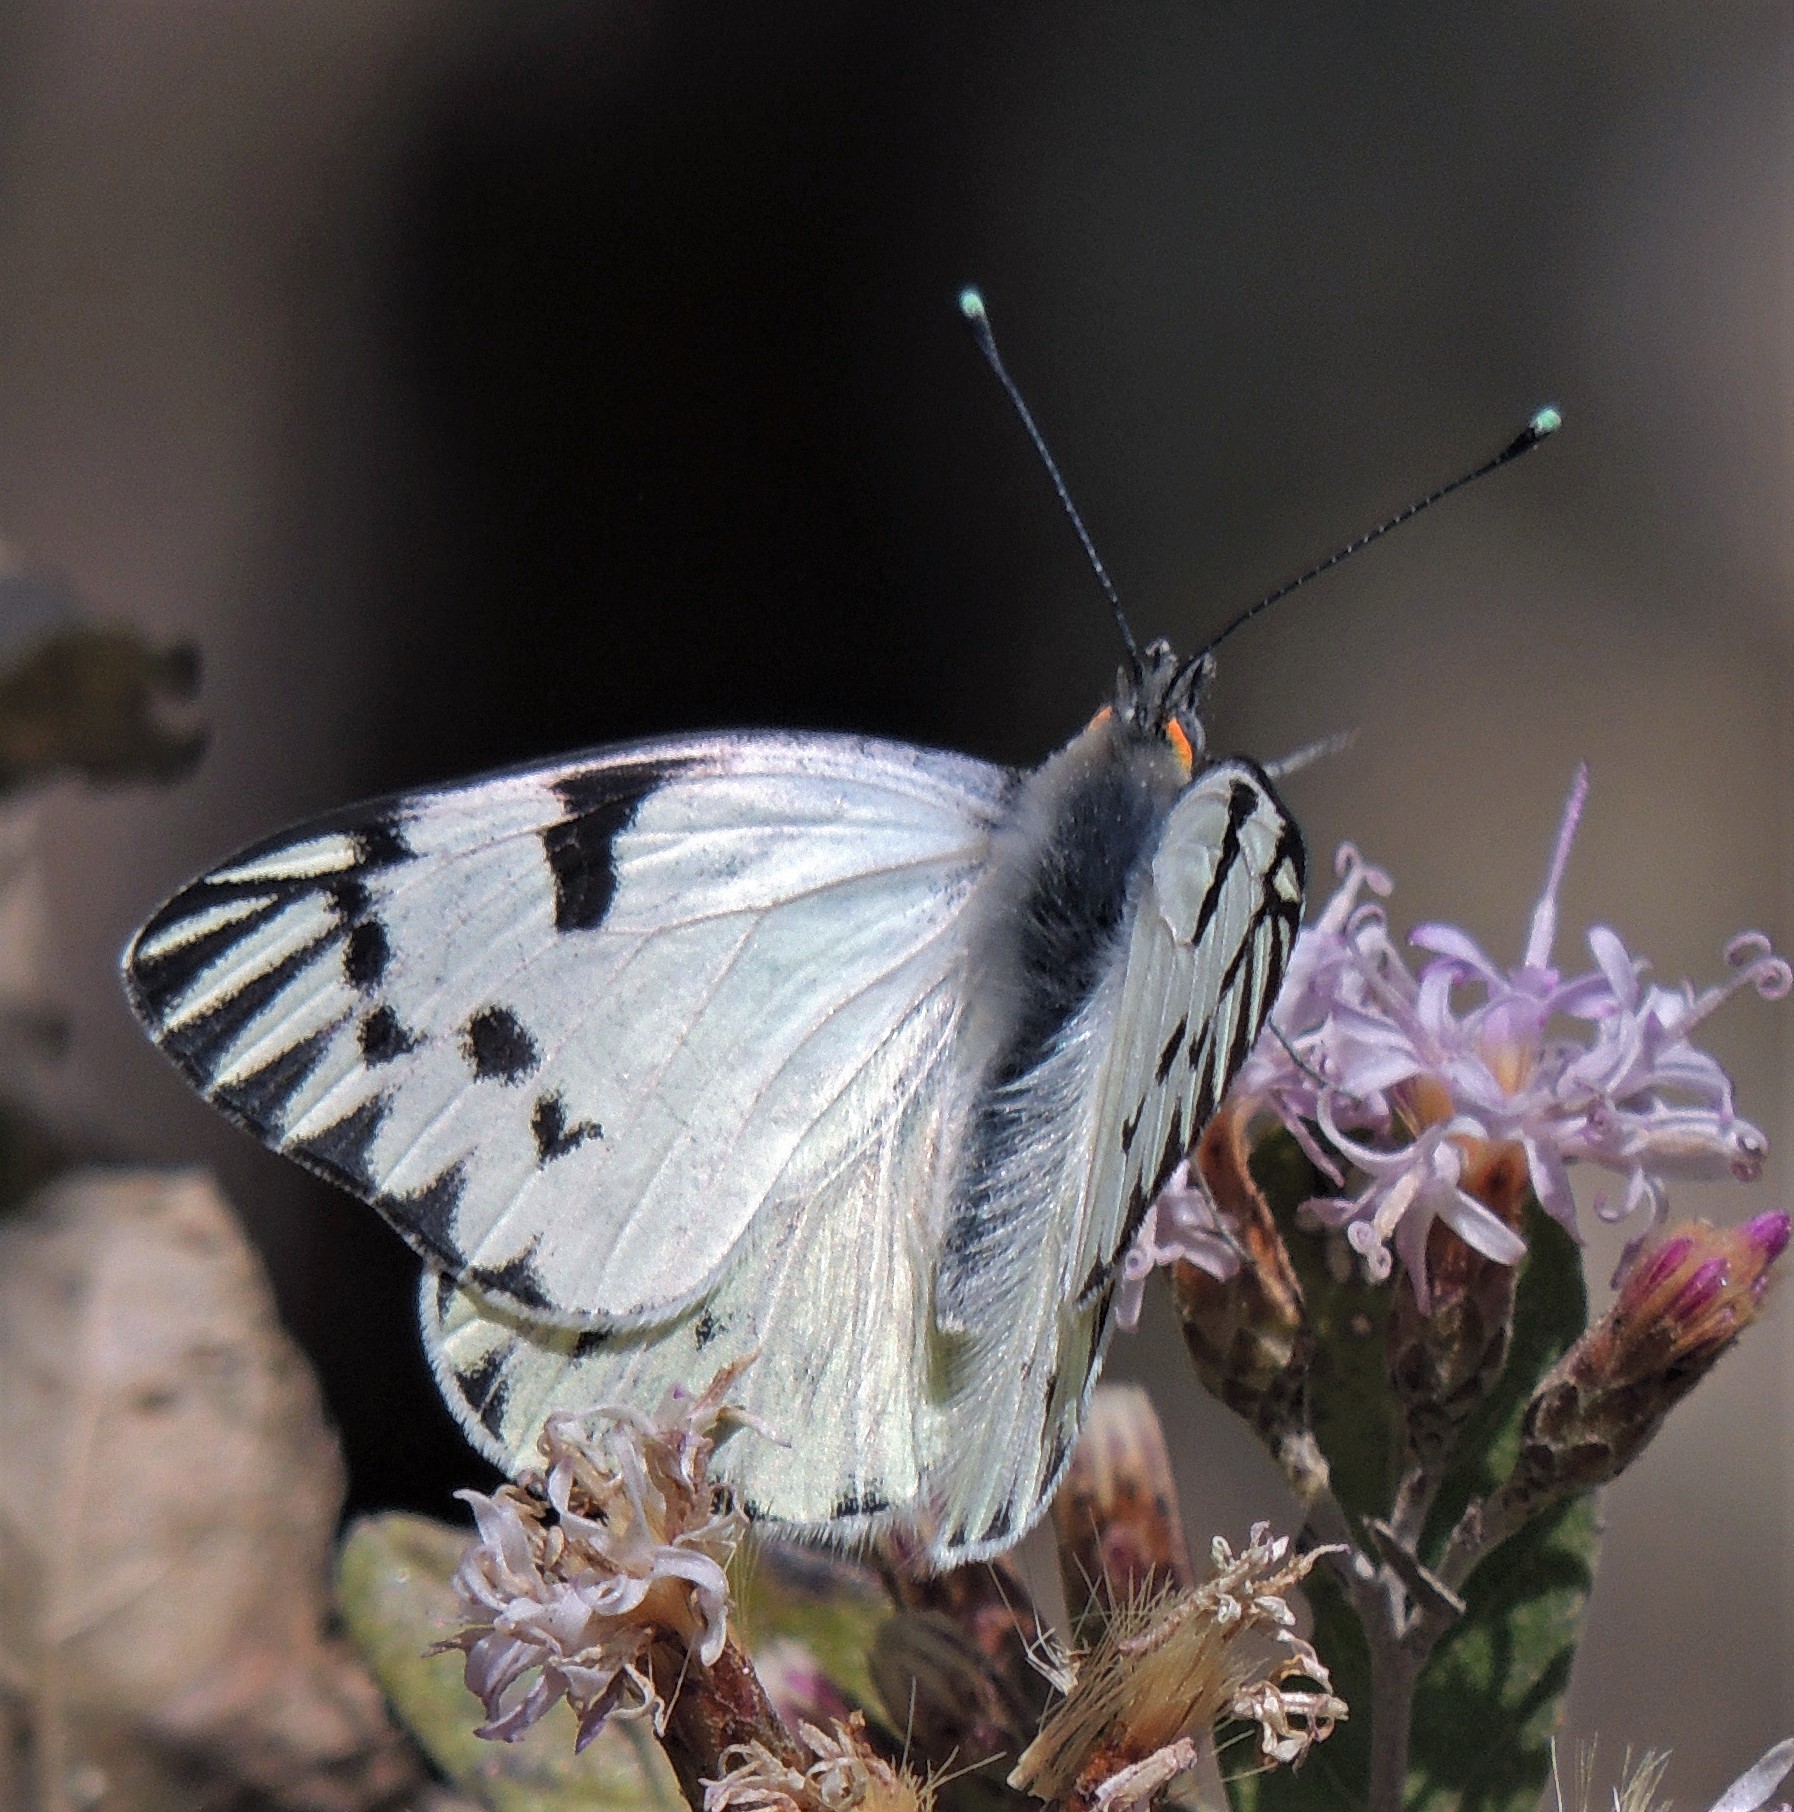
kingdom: Animalia
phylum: Arthropoda
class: Insecta
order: Lepidoptera
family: Pieridae
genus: Tatochila
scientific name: Tatochila autodice
